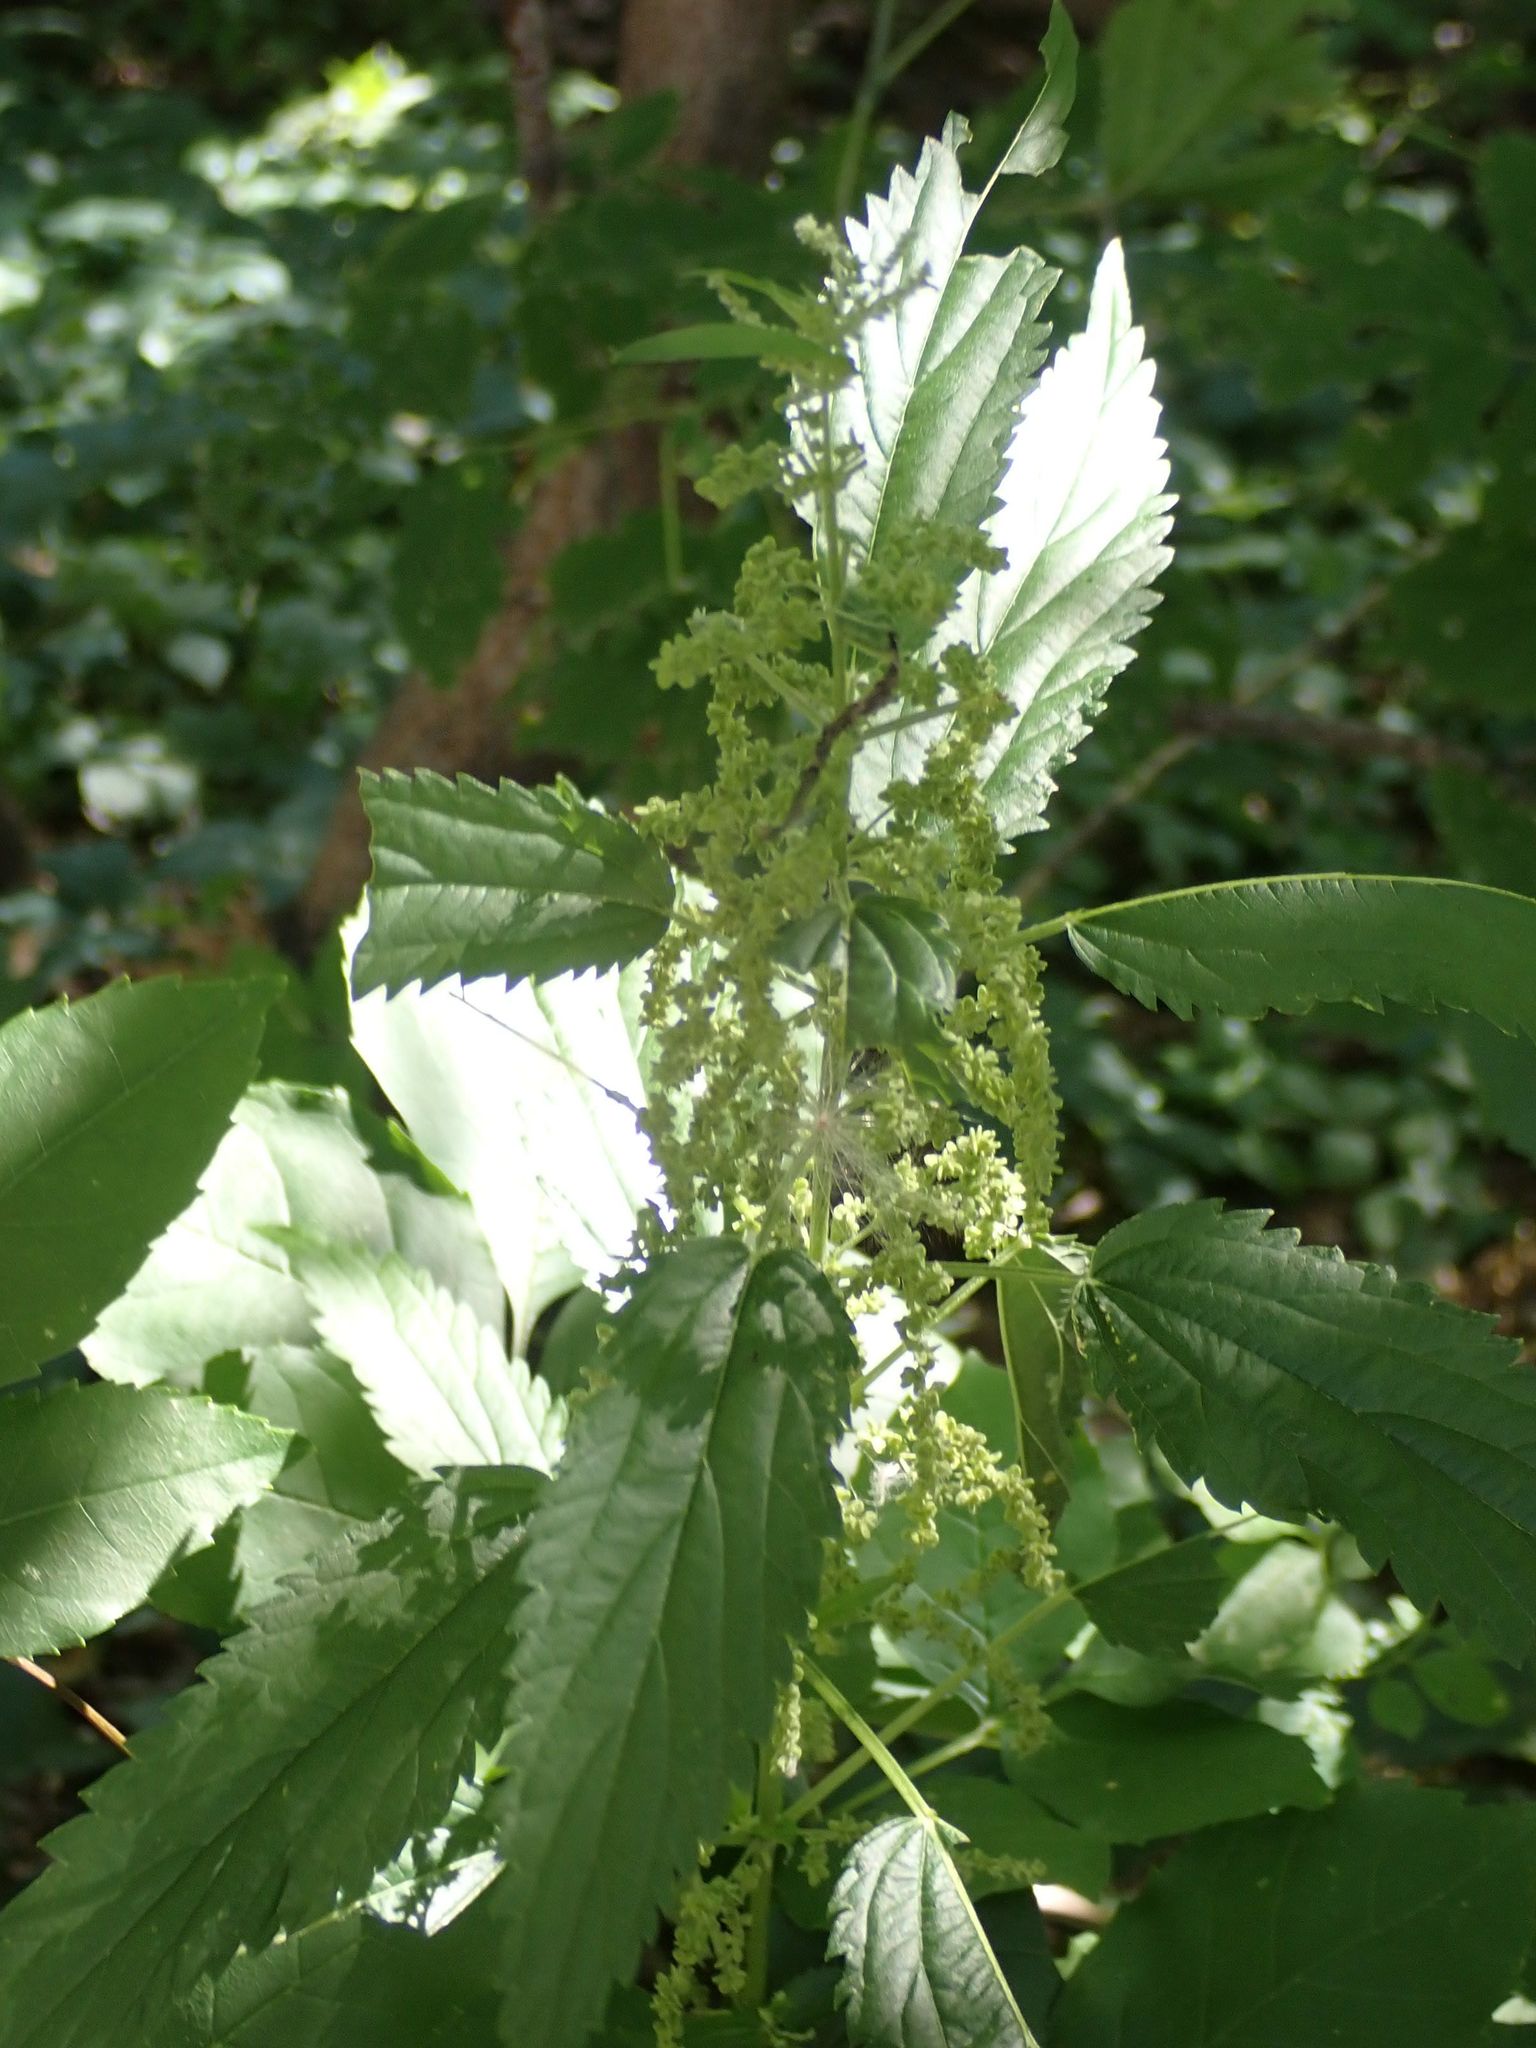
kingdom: Plantae
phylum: Tracheophyta
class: Magnoliopsida
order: Rosales
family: Urticaceae
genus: Urtica
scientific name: Urtica gracilis
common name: Slender stinging nettle
